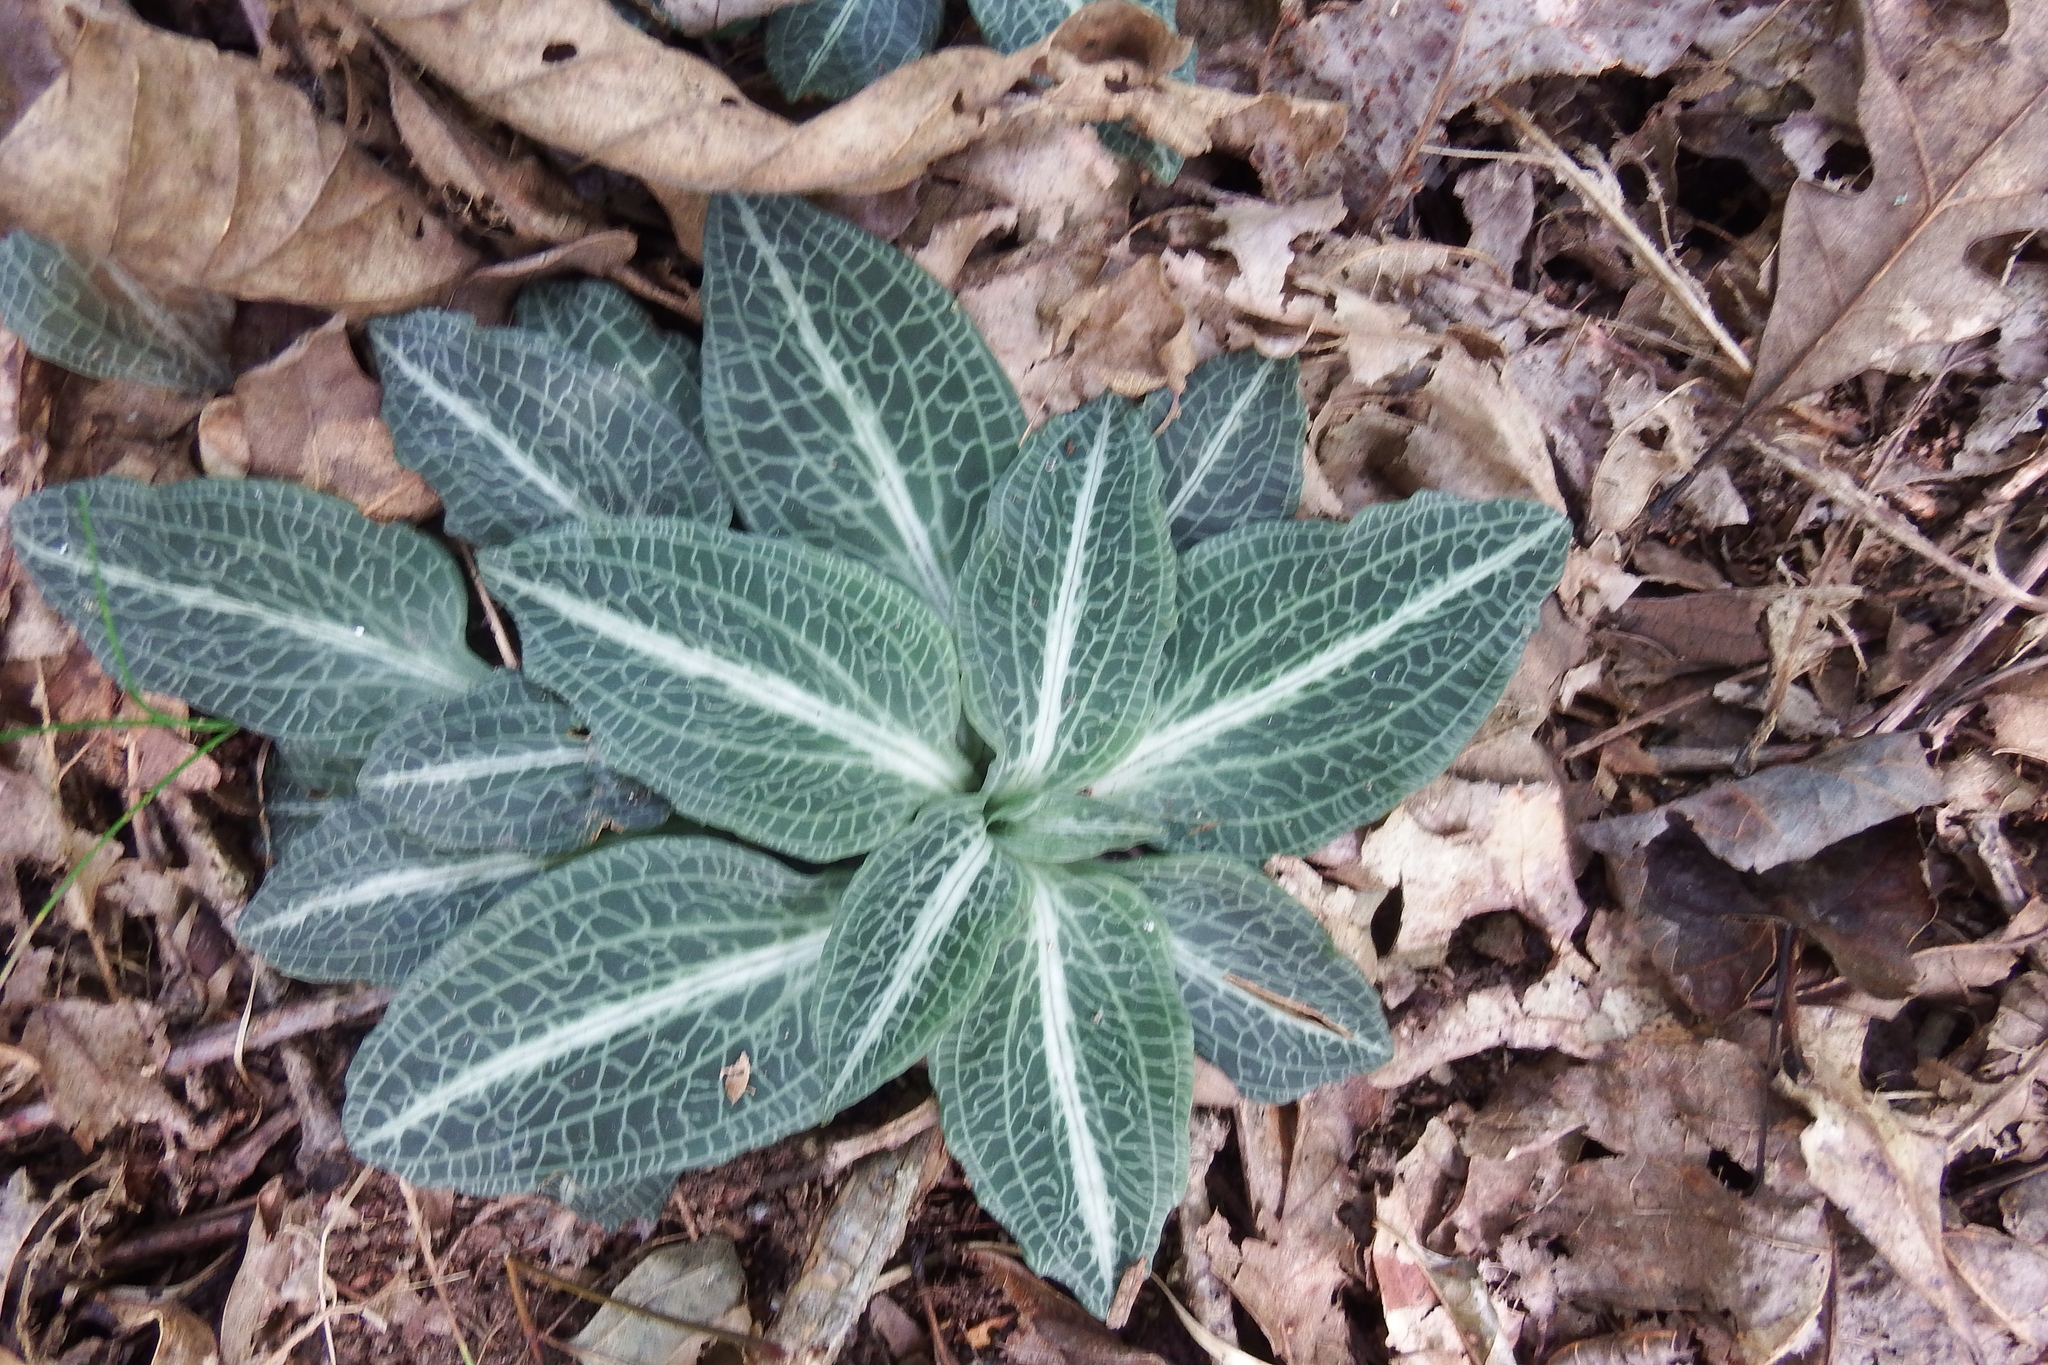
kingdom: Plantae
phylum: Tracheophyta
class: Liliopsida
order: Asparagales
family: Orchidaceae
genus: Goodyera
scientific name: Goodyera pubescens
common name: Downy rattlesnake-plantain
